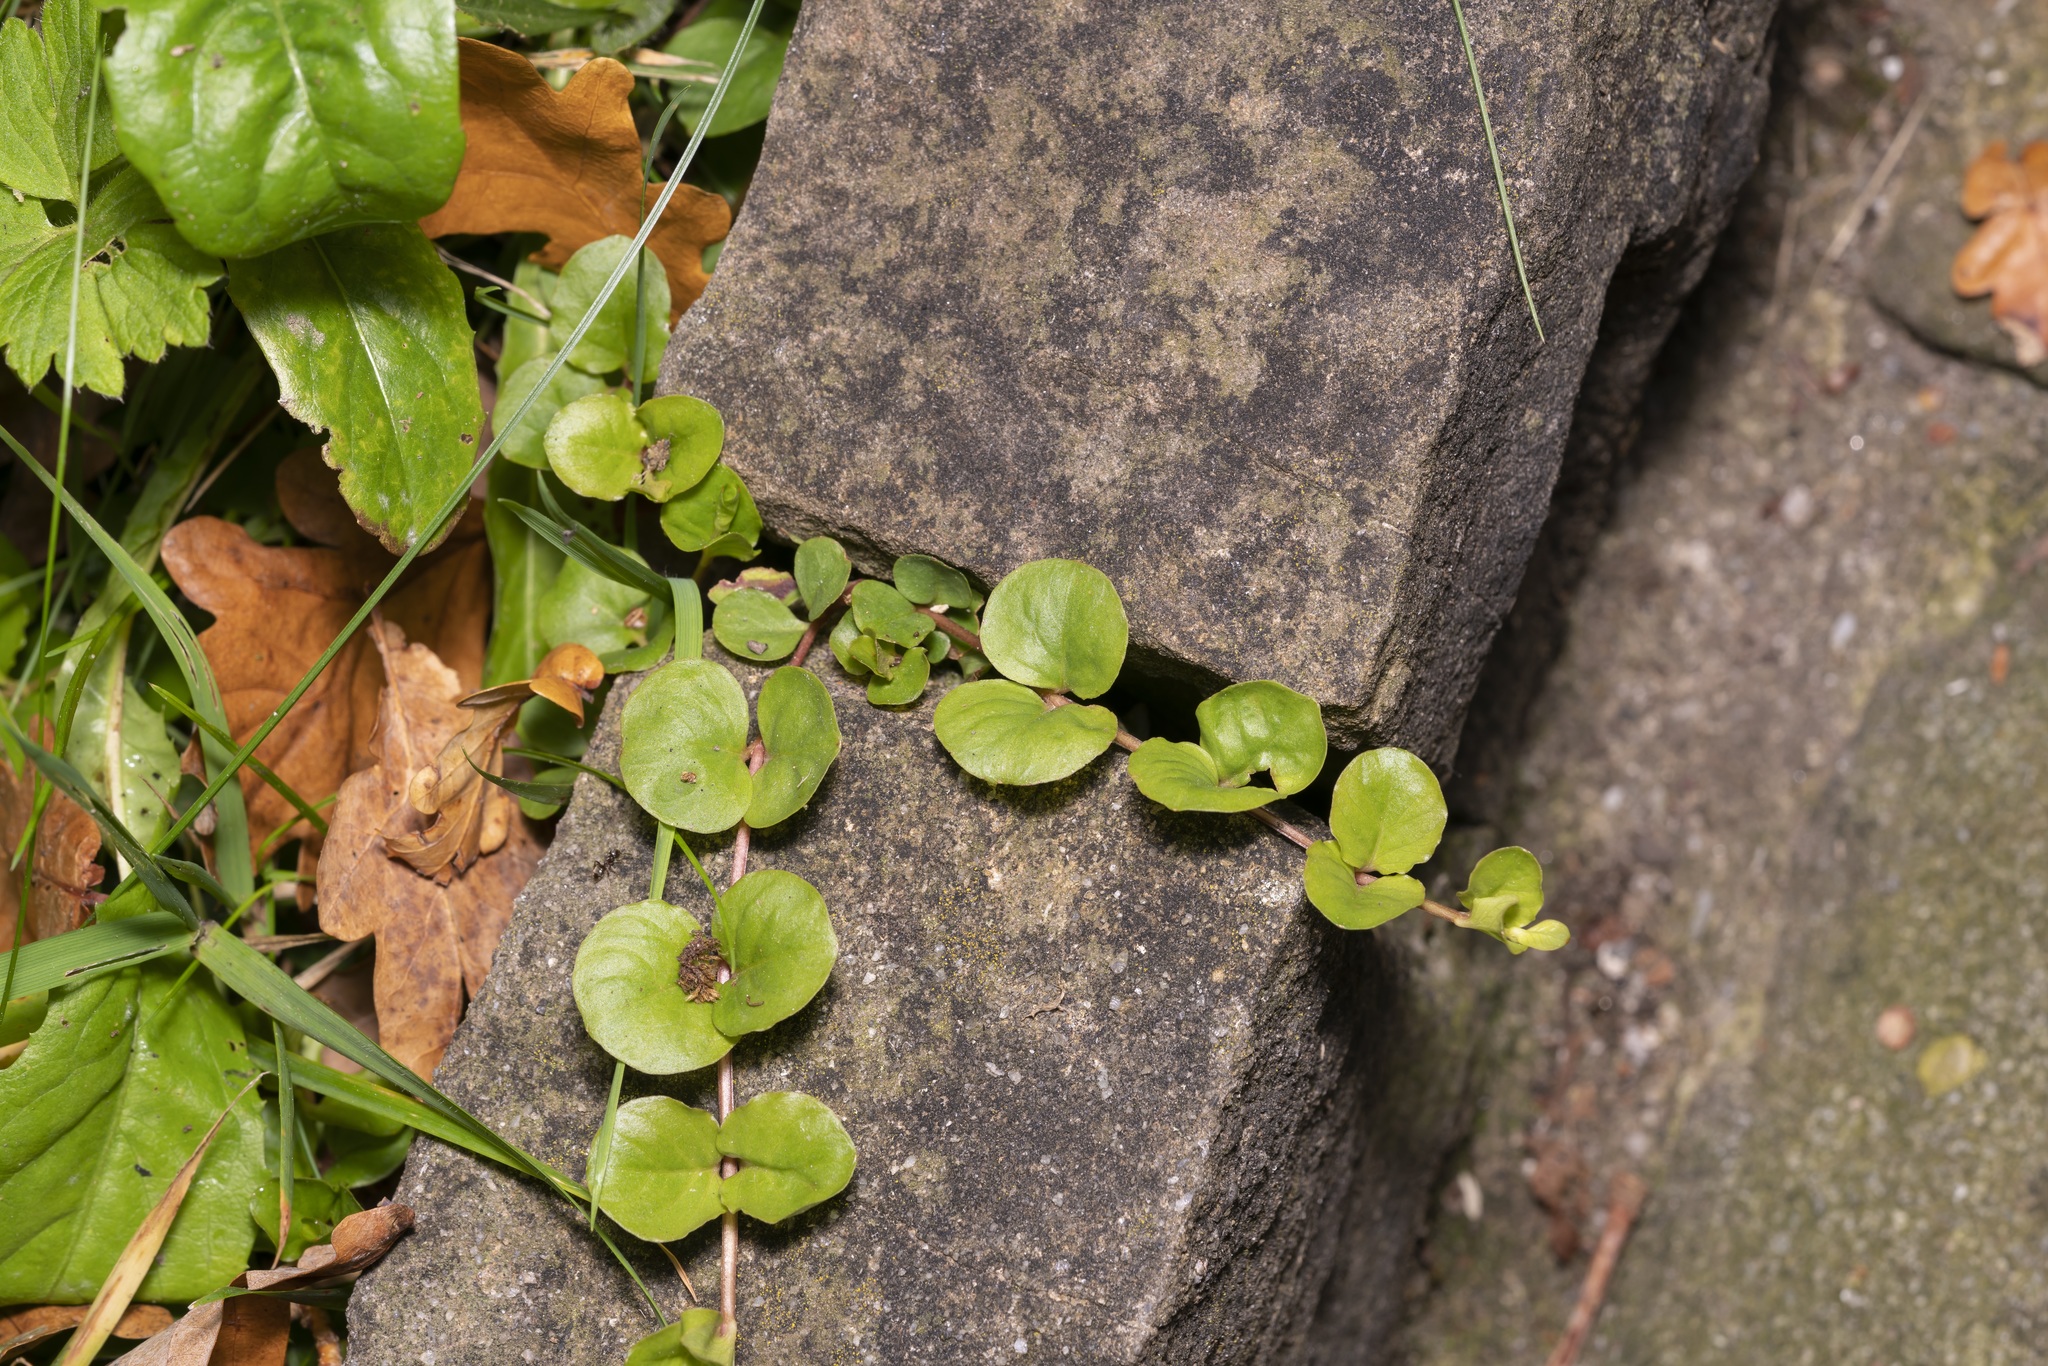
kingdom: Plantae
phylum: Tracheophyta
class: Magnoliopsida
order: Ericales
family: Primulaceae
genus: Lysimachia
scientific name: Lysimachia nummularia
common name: Moneywort
